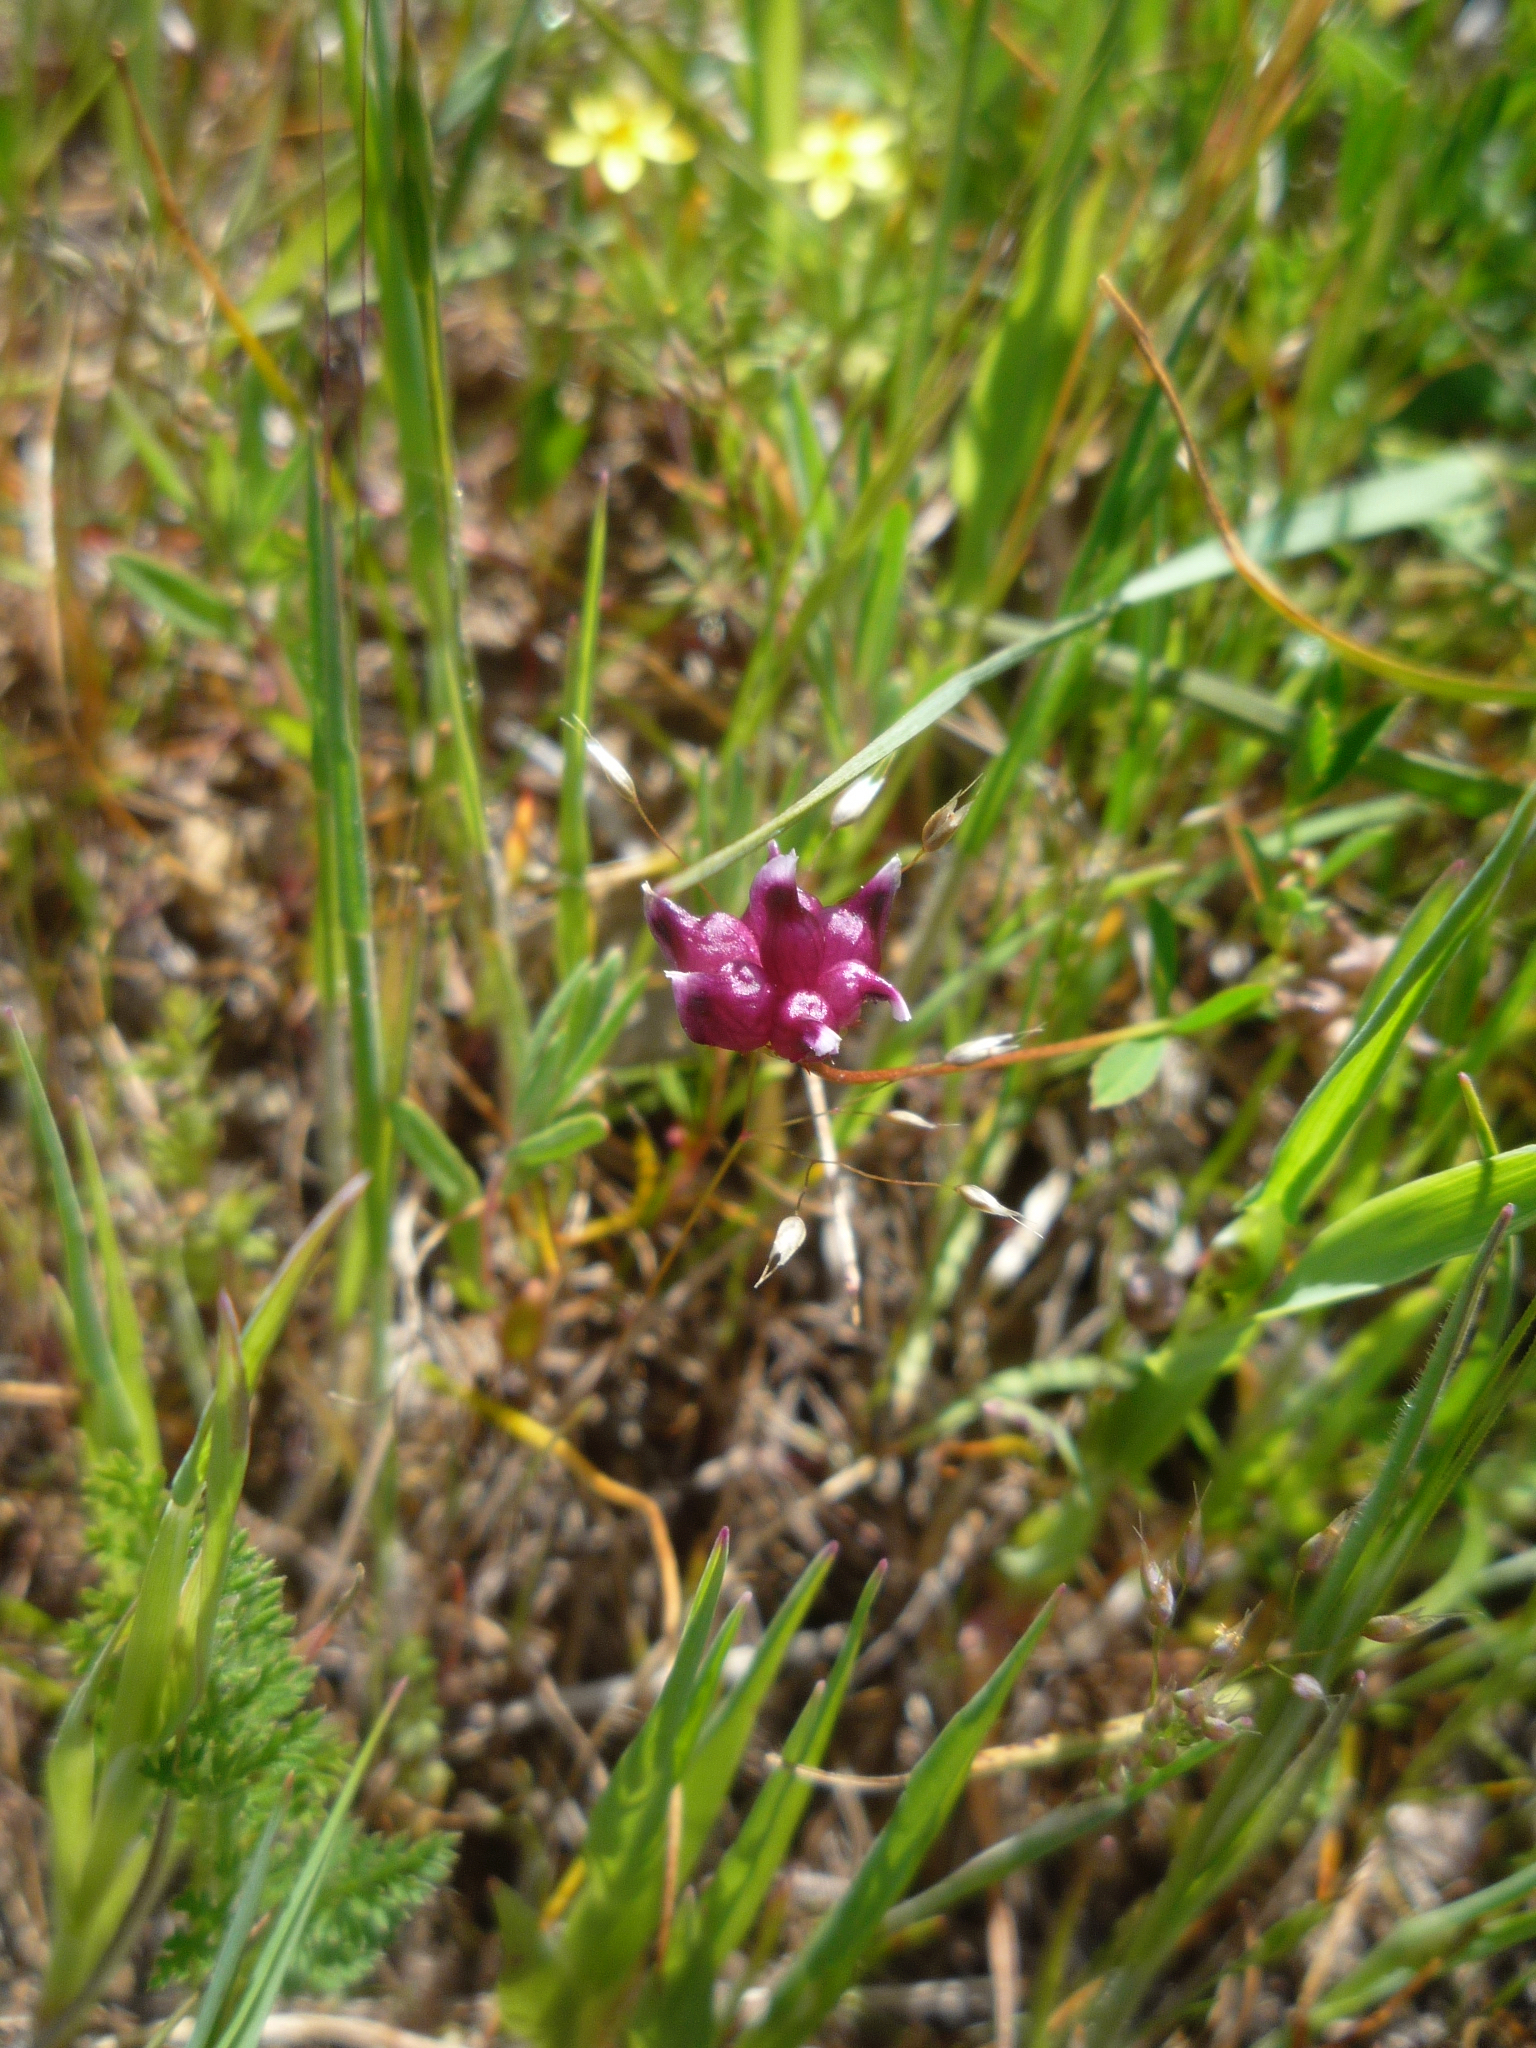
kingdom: Plantae
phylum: Tracheophyta
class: Magnoliopsida
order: Fabales
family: Fabaceae
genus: Trifolium
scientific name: Trifolium depauperatum
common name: Poverty clover
